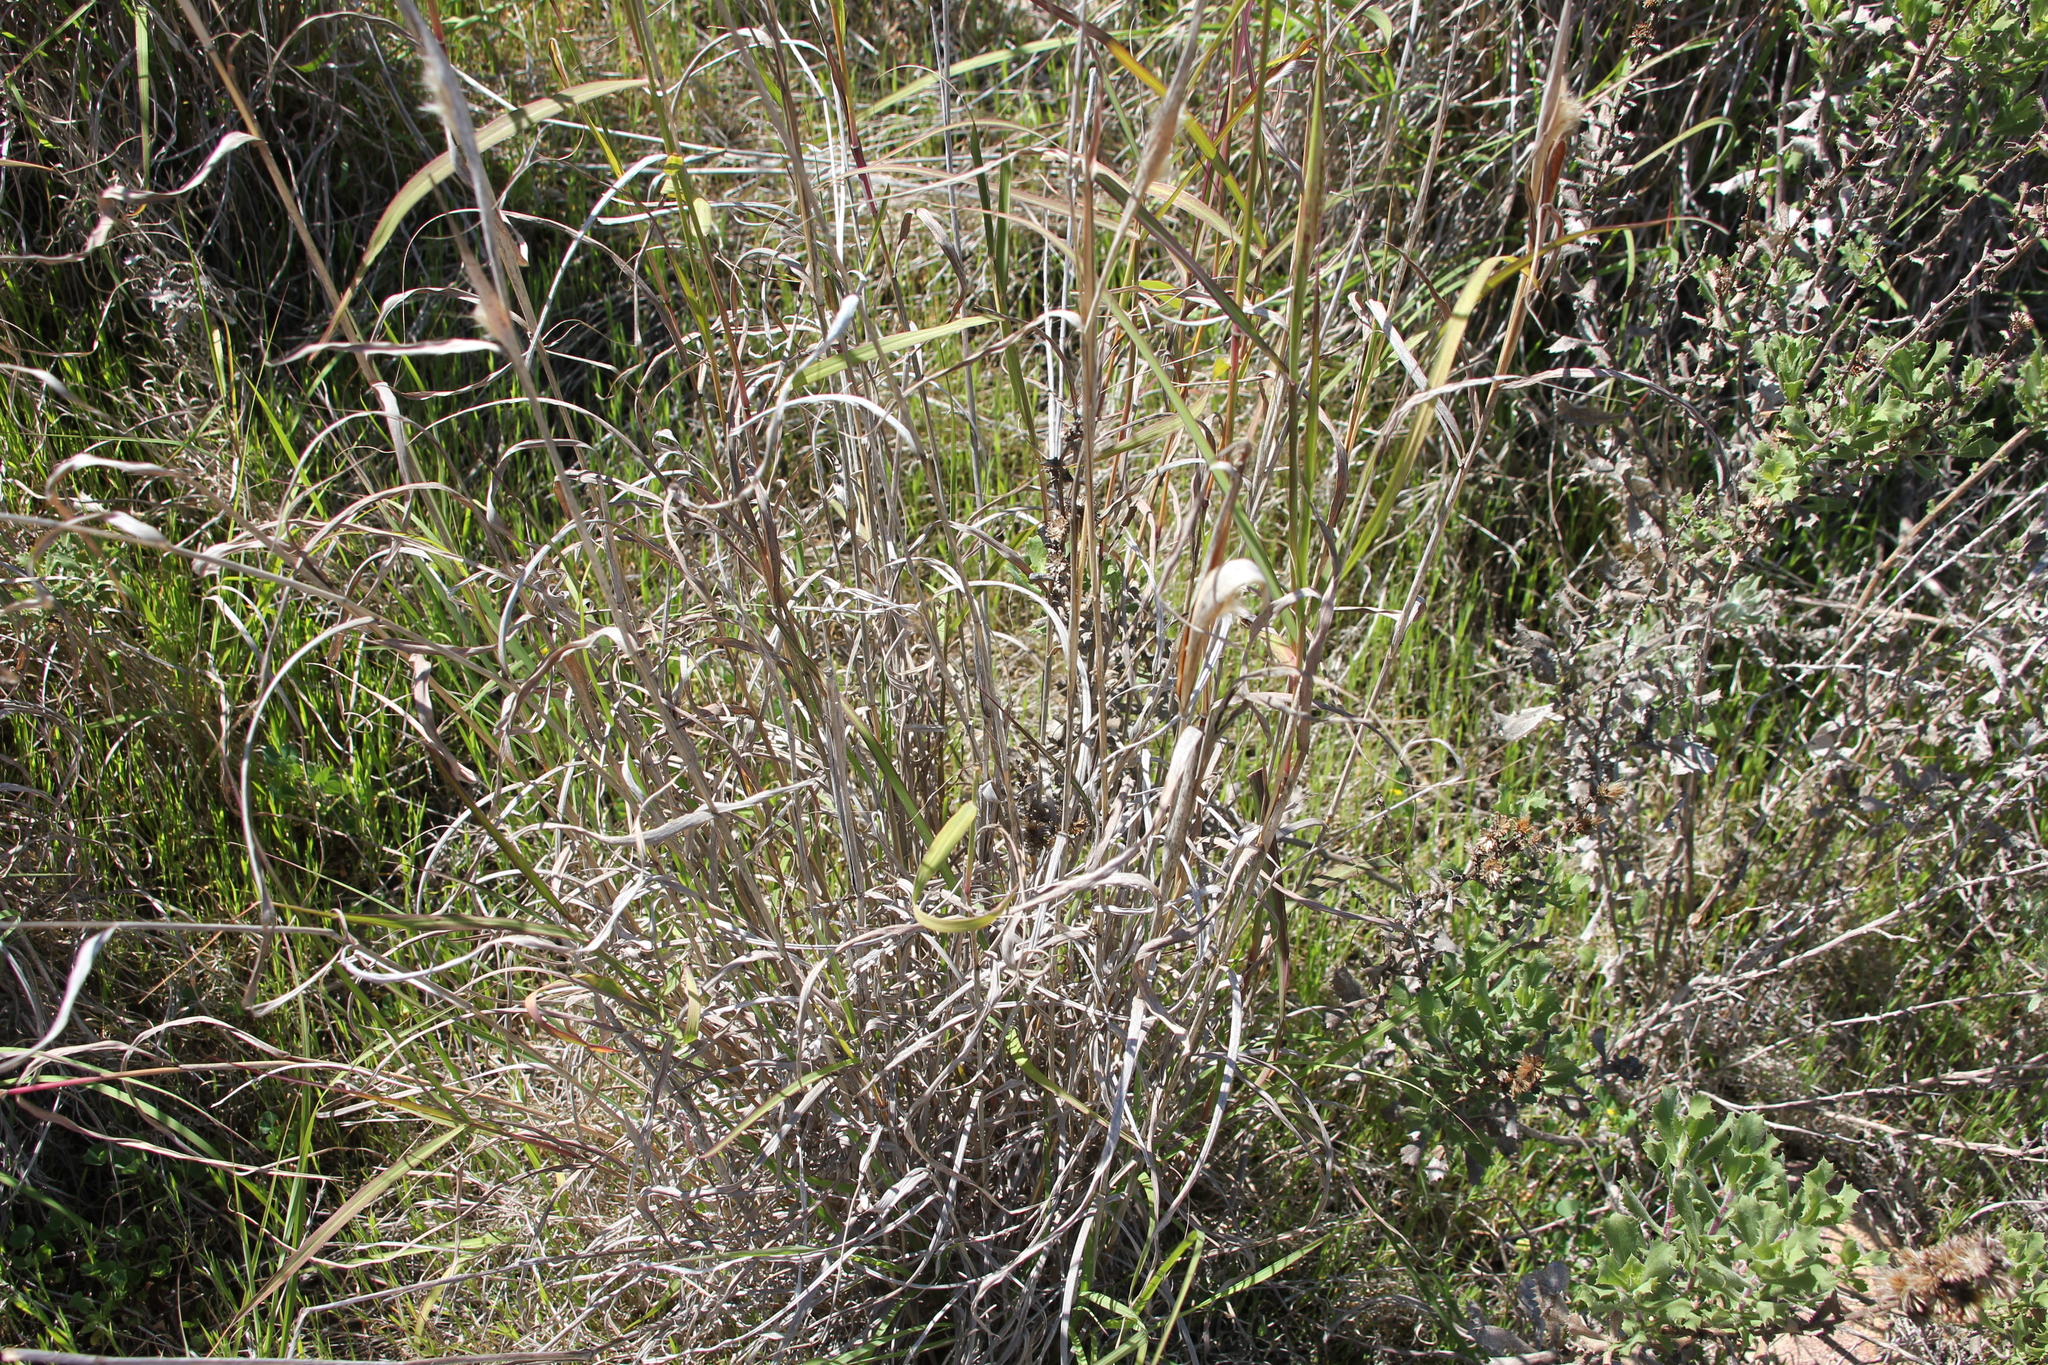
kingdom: Plantae
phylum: Tracheophyta
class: Liliopsida
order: Poales
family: Poaceae
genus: Bothriochloa
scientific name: Bothriochloa barbinodis
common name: Cane bluestem
